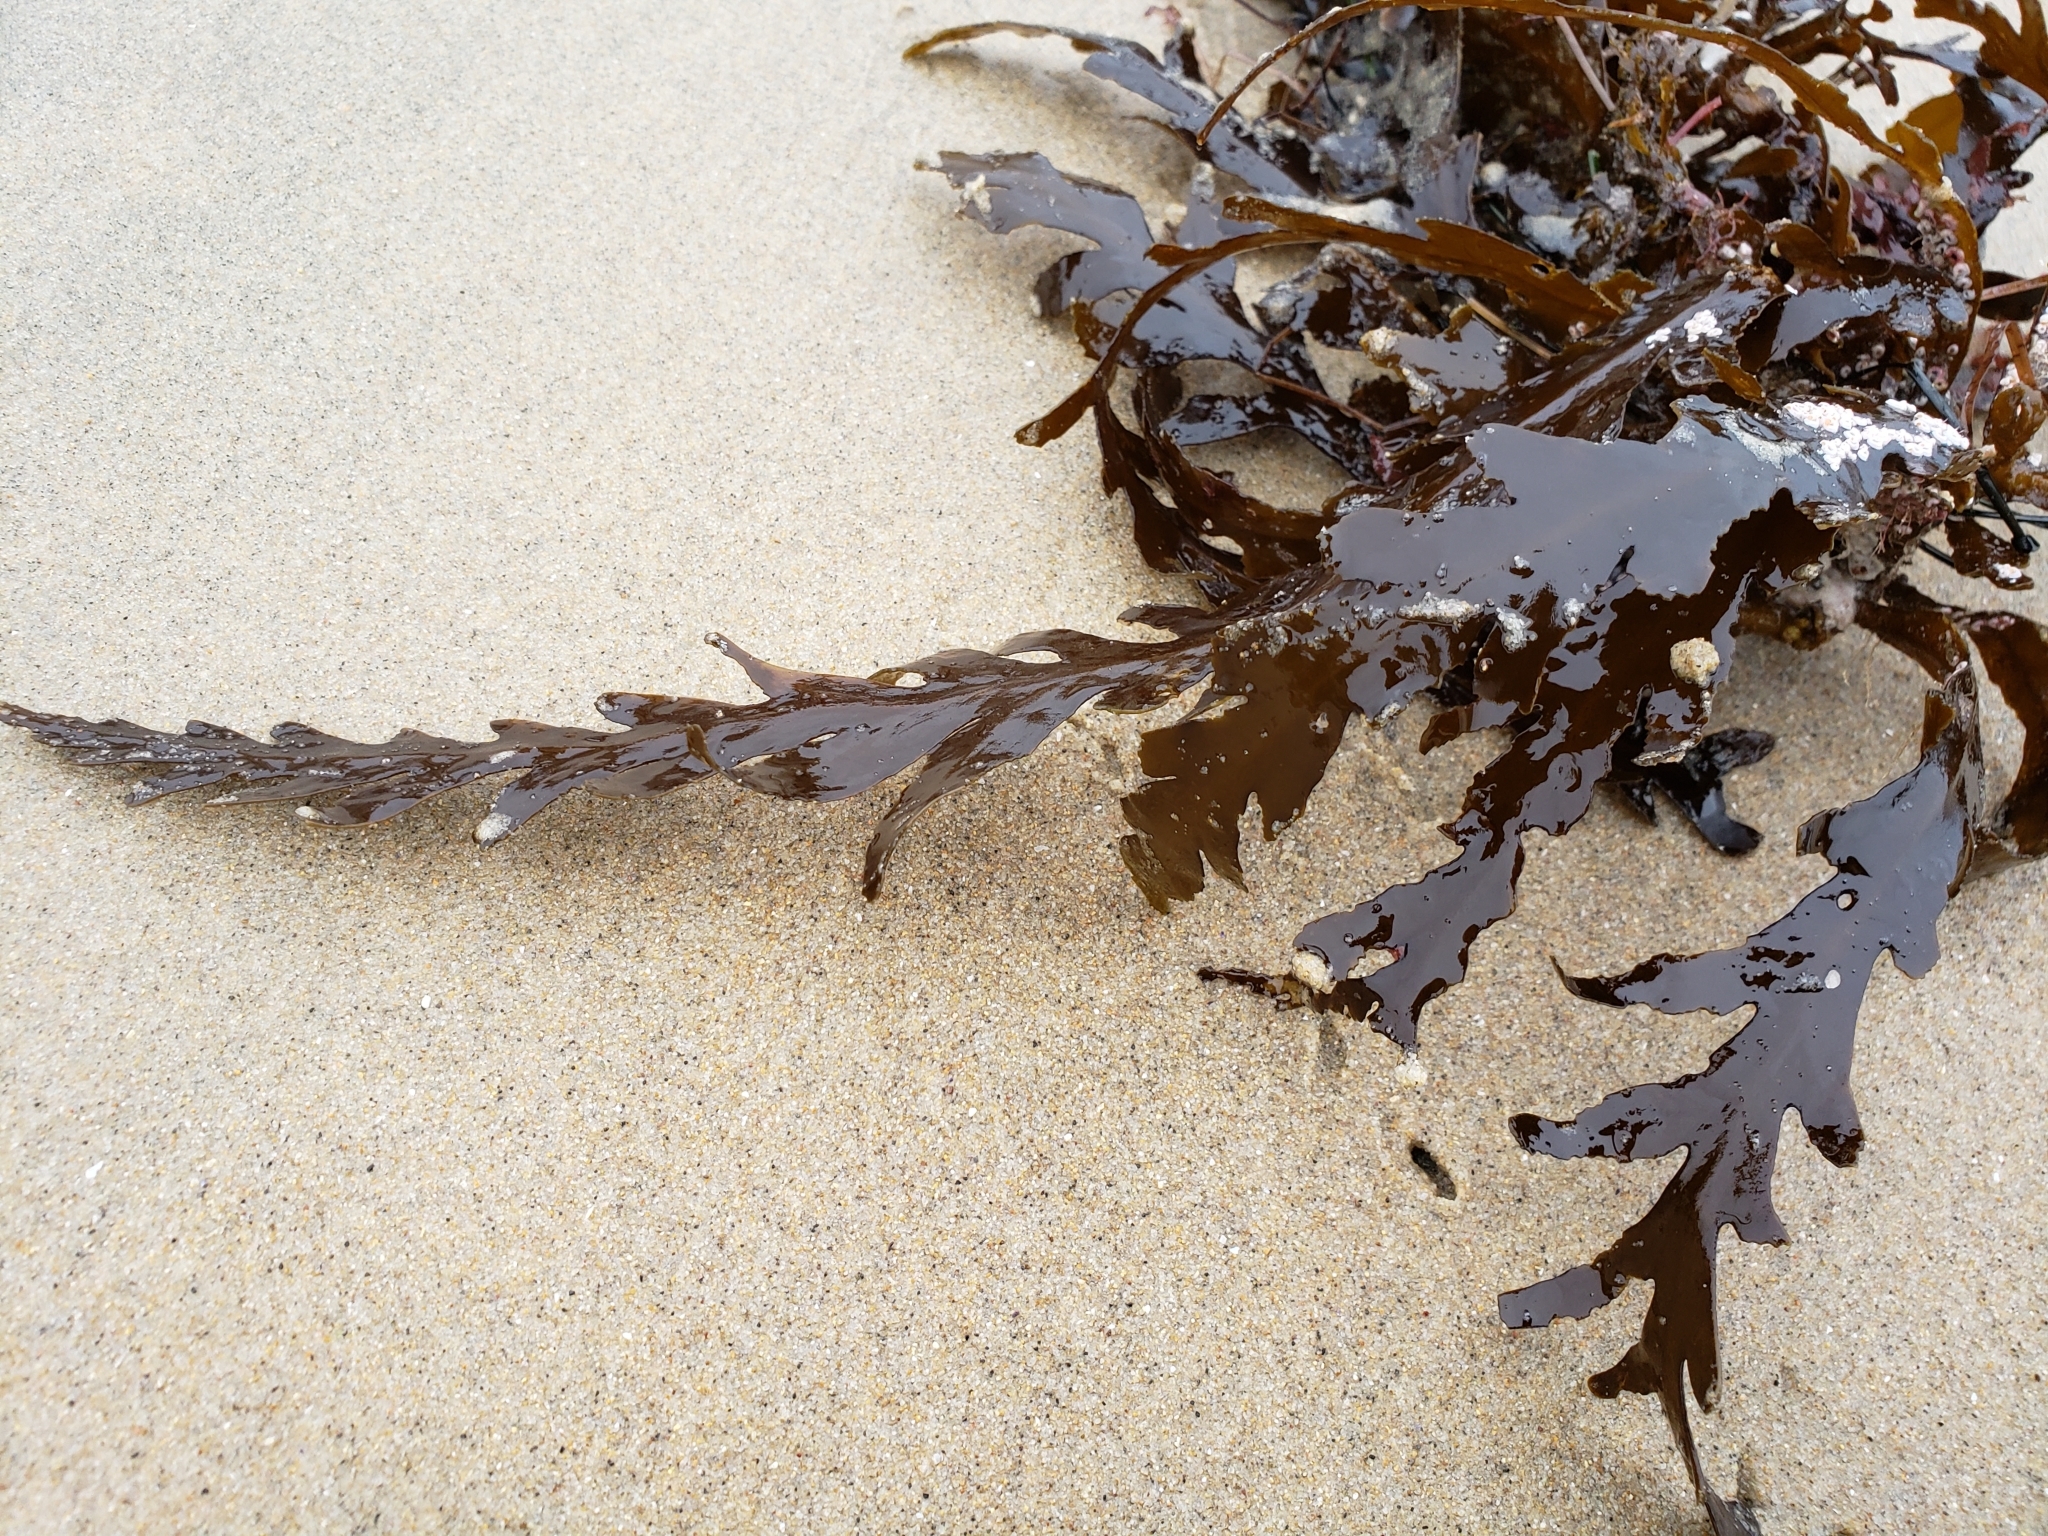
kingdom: Chromista
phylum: Ochrophyta
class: Phaeophyceae
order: Fucales
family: Sargassaceae
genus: Stephanocystis
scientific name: Stephanocystis
